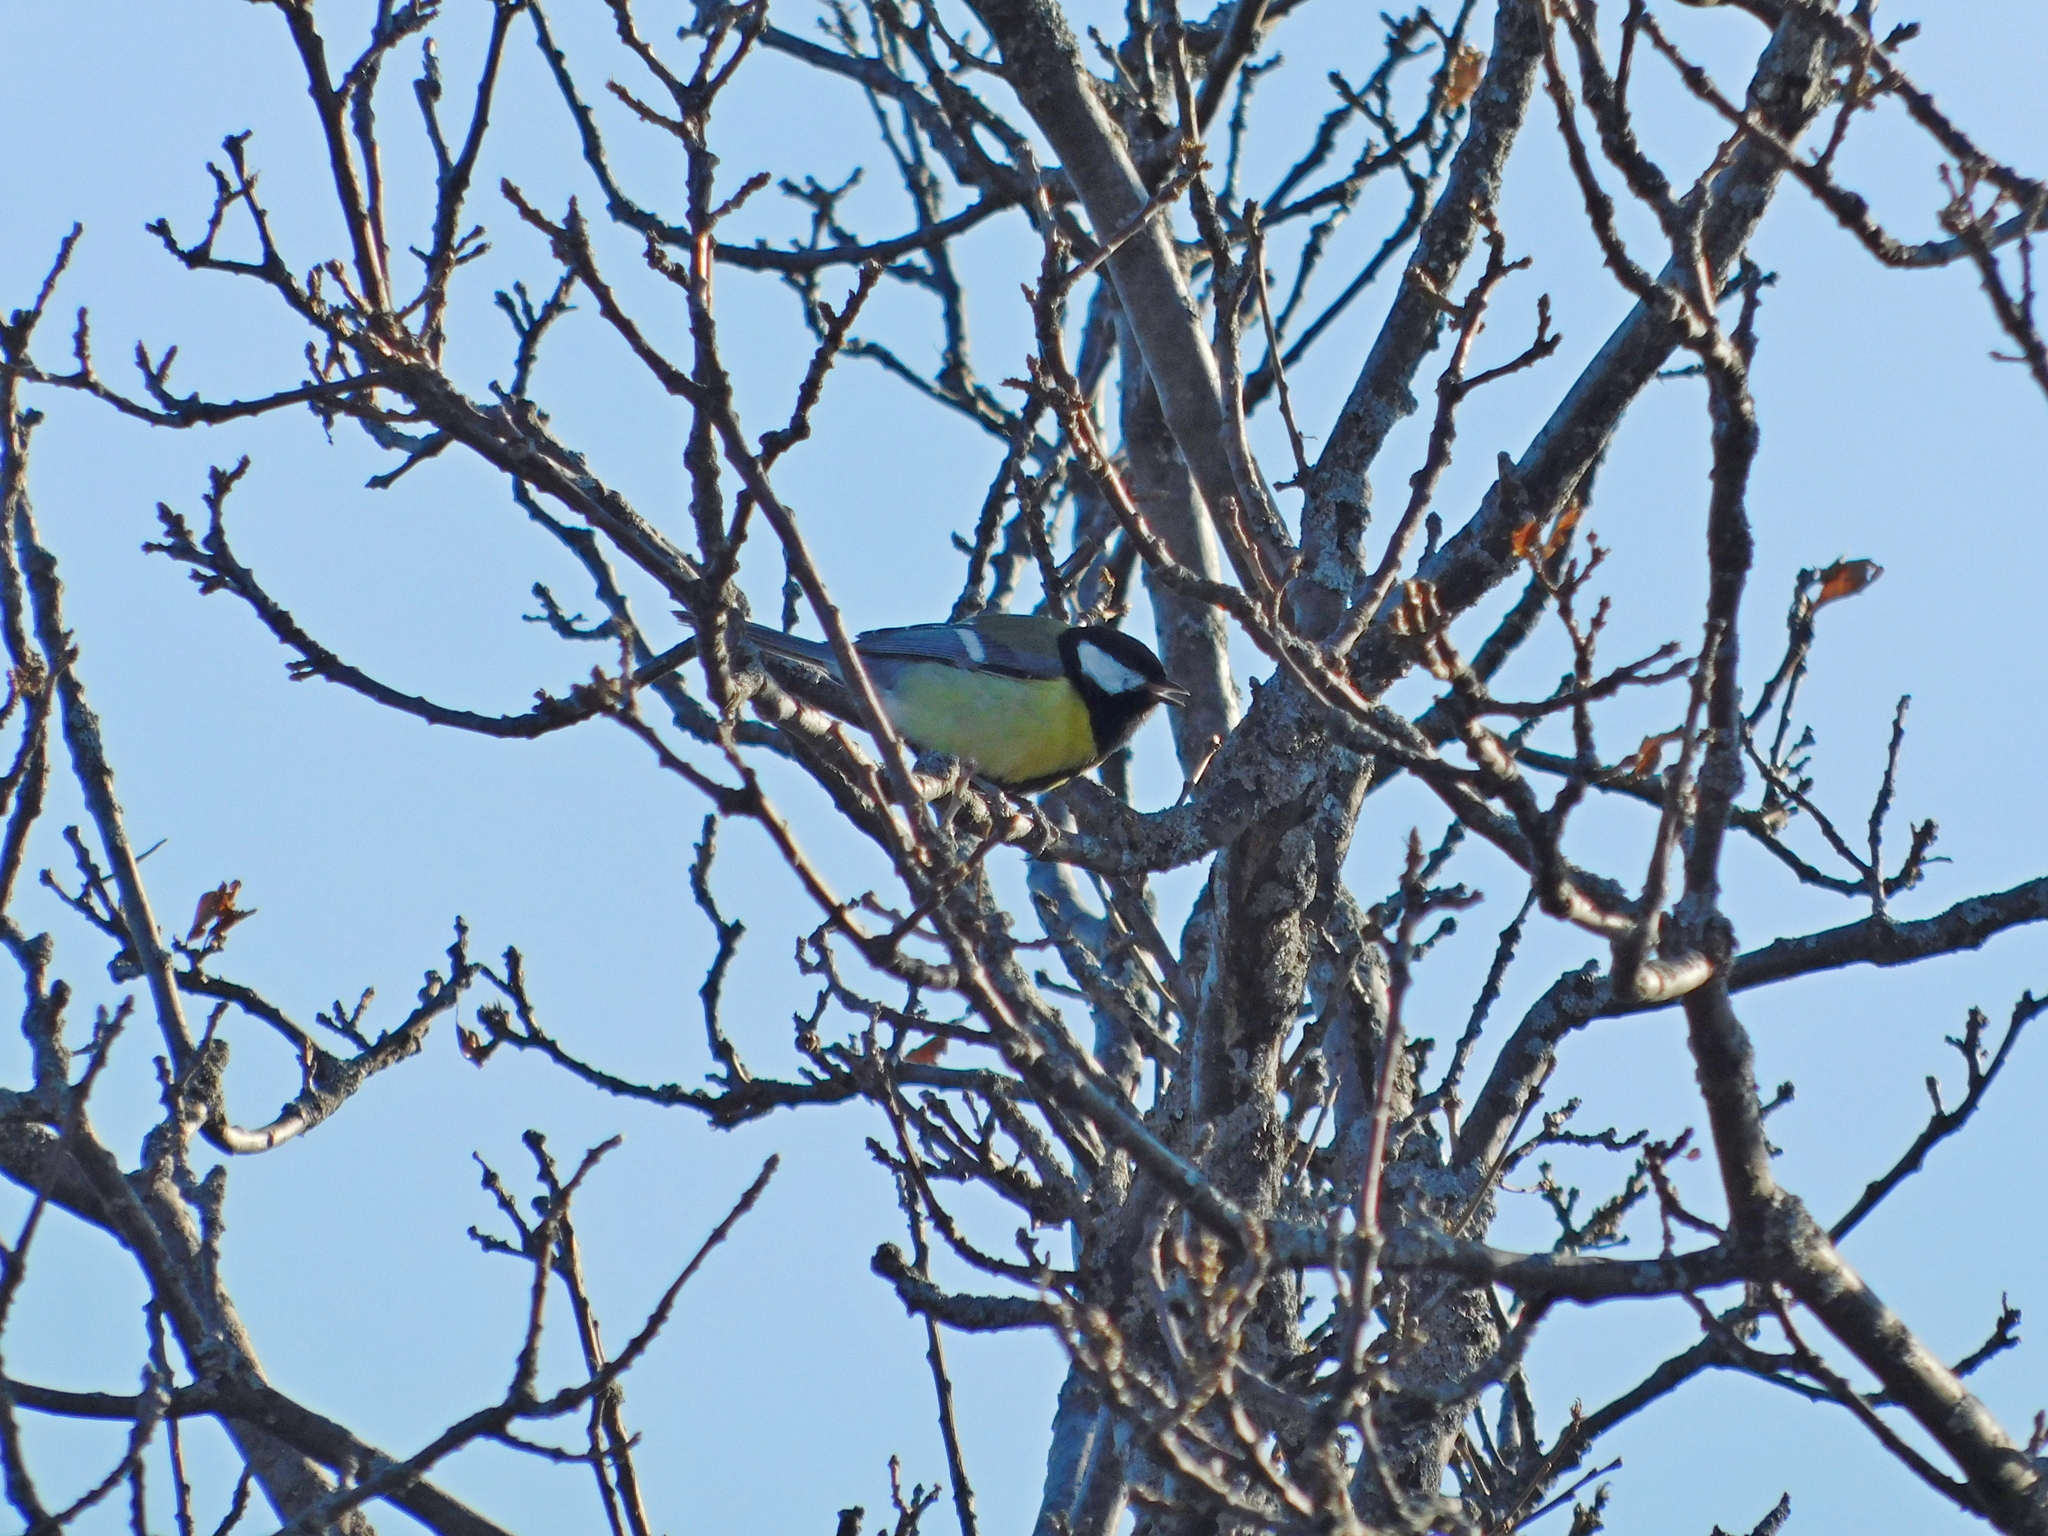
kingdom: Animalia
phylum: Chordata
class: Aves
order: Passeriformes
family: Paridae
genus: Parus
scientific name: Parus major
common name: Great tit
